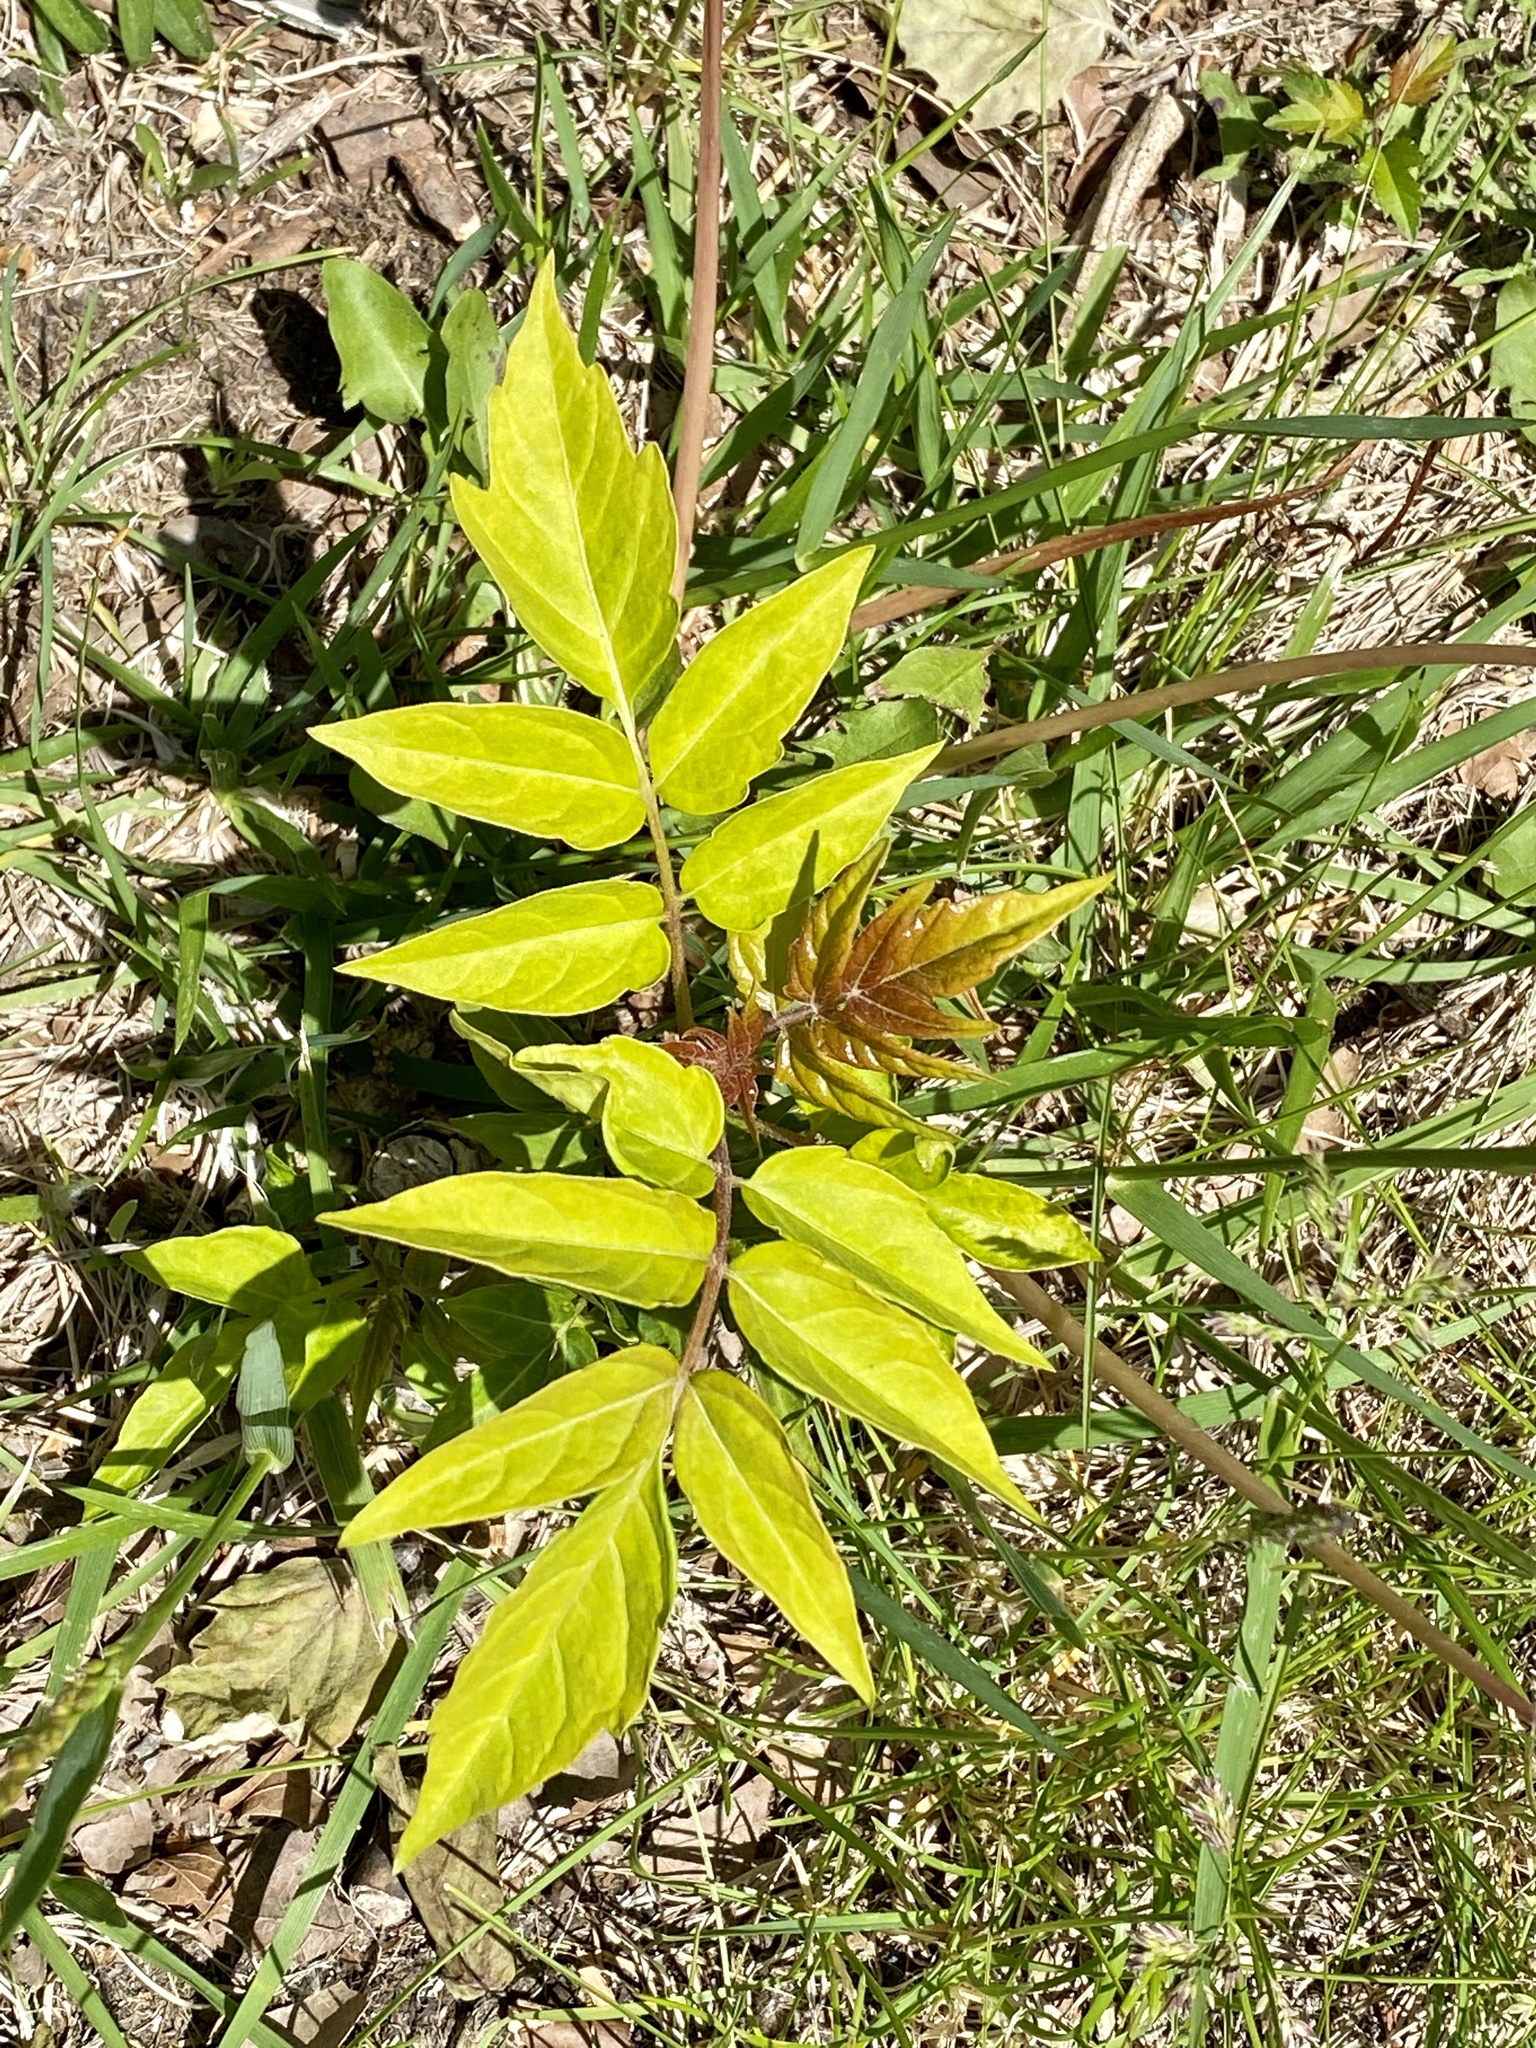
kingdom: Plantae
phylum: Tracheophyta
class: Magnoliopsida
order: Sapindales
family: Simaroubaceae
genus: Ailanthus
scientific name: Ailanthus altissima
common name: Tree-of-heaven
